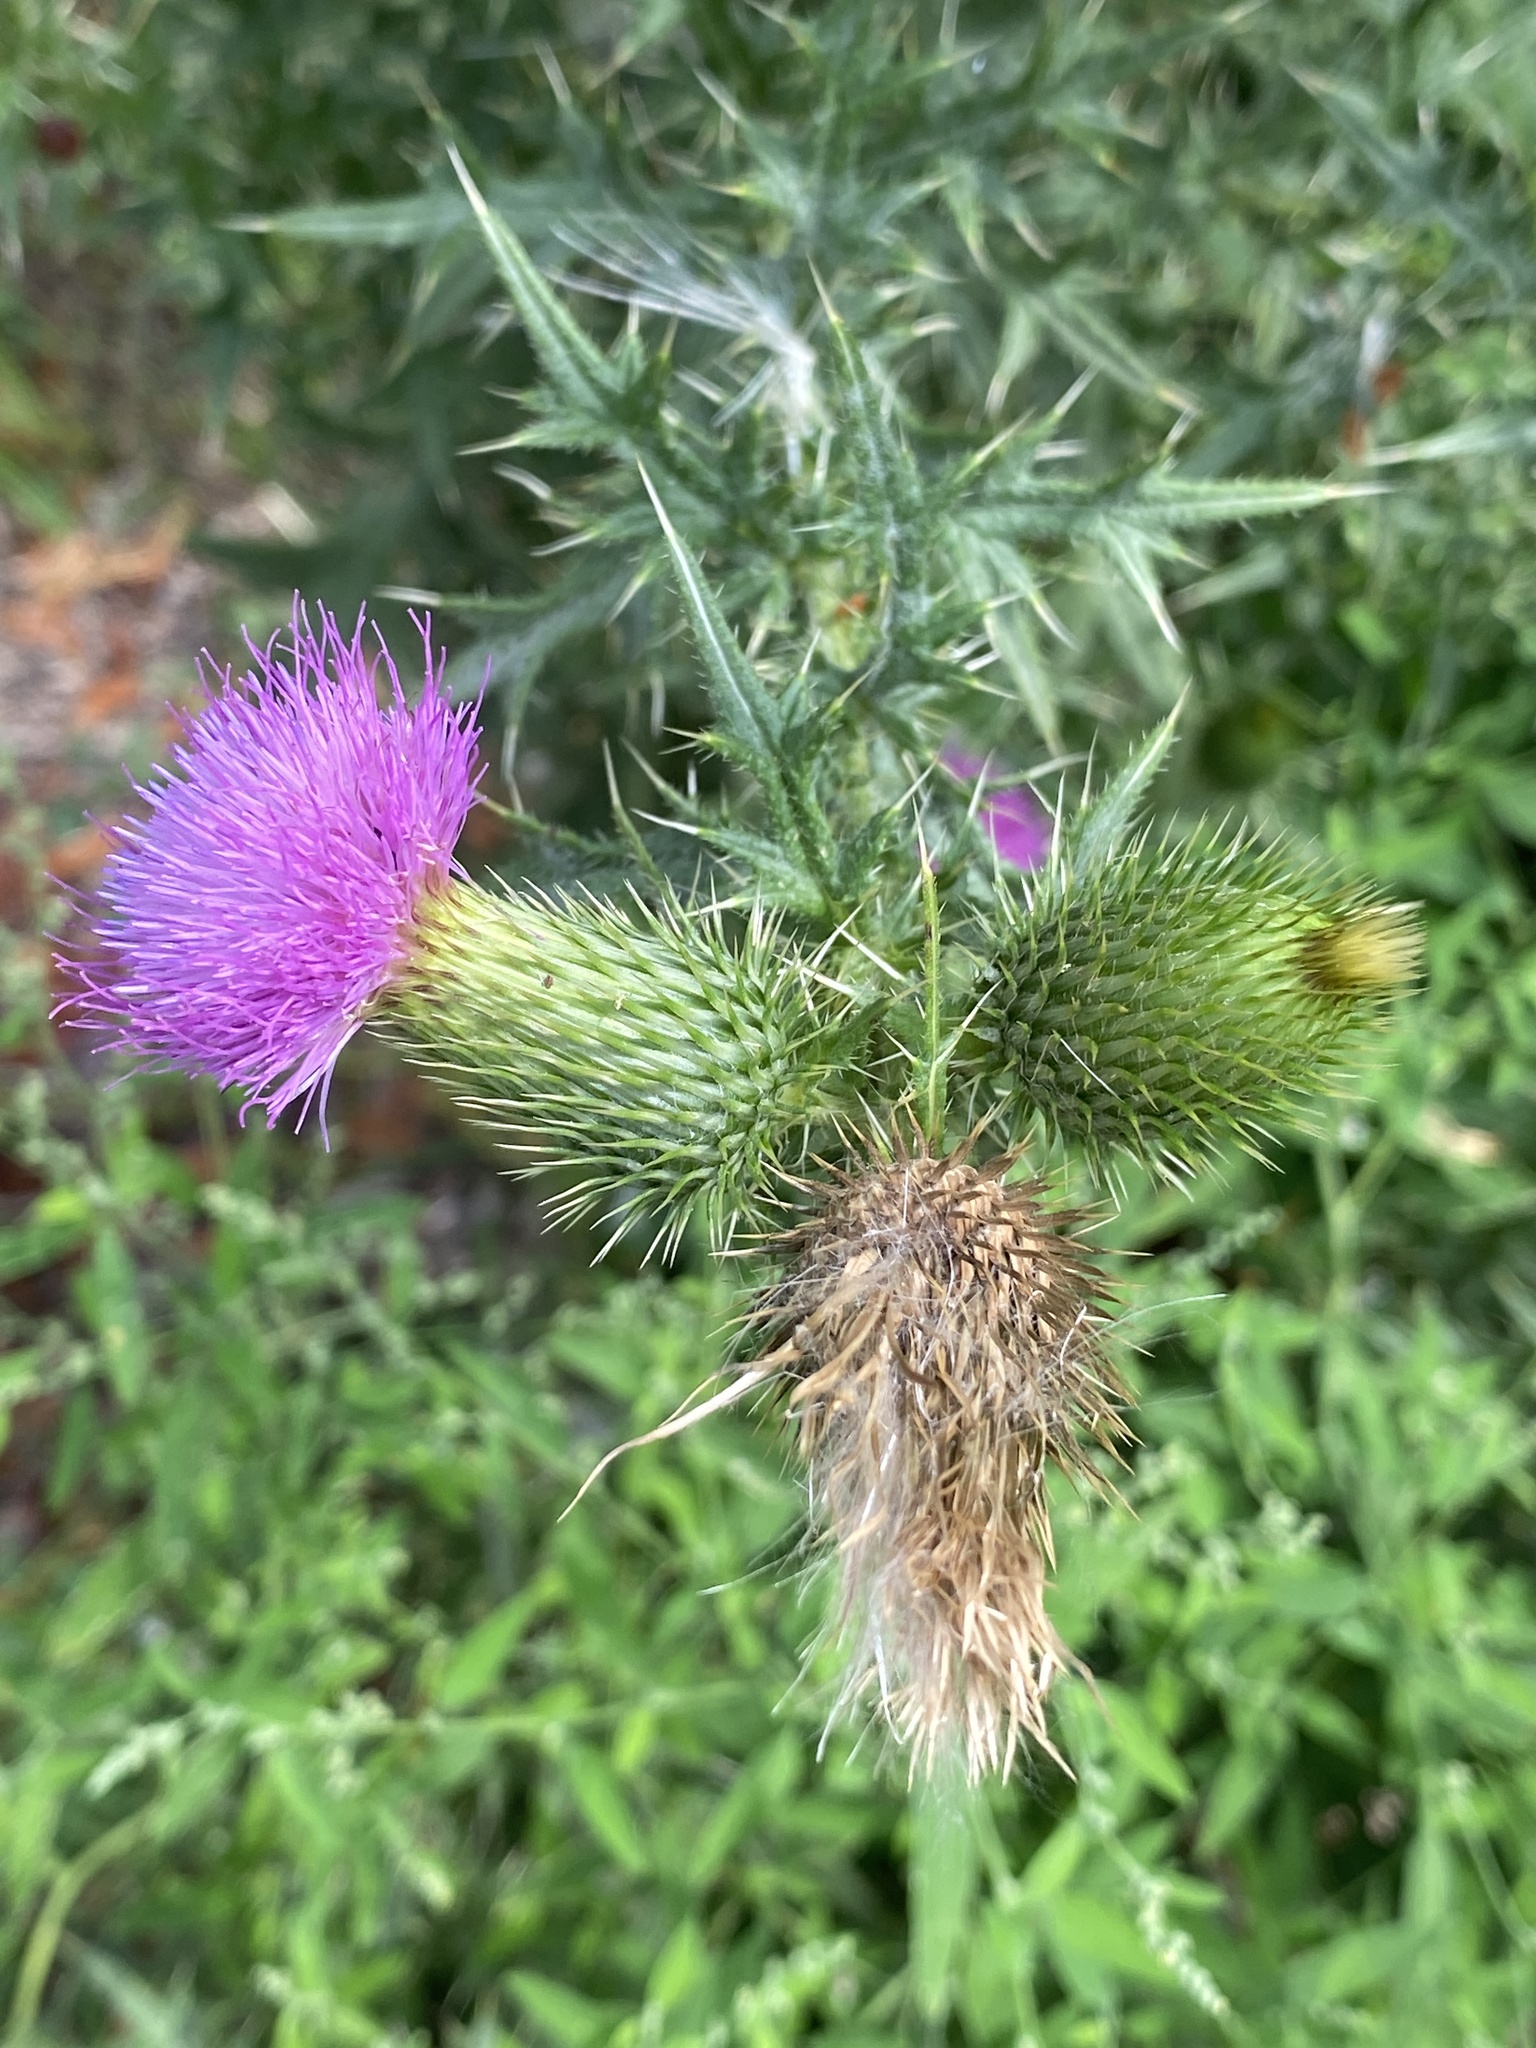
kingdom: Plantae
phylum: Tracheophyta
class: Magnoliopsida
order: Asterales
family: Asteraceae
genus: Cirsium
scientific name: Cirsium vulgare
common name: Bull thistle
